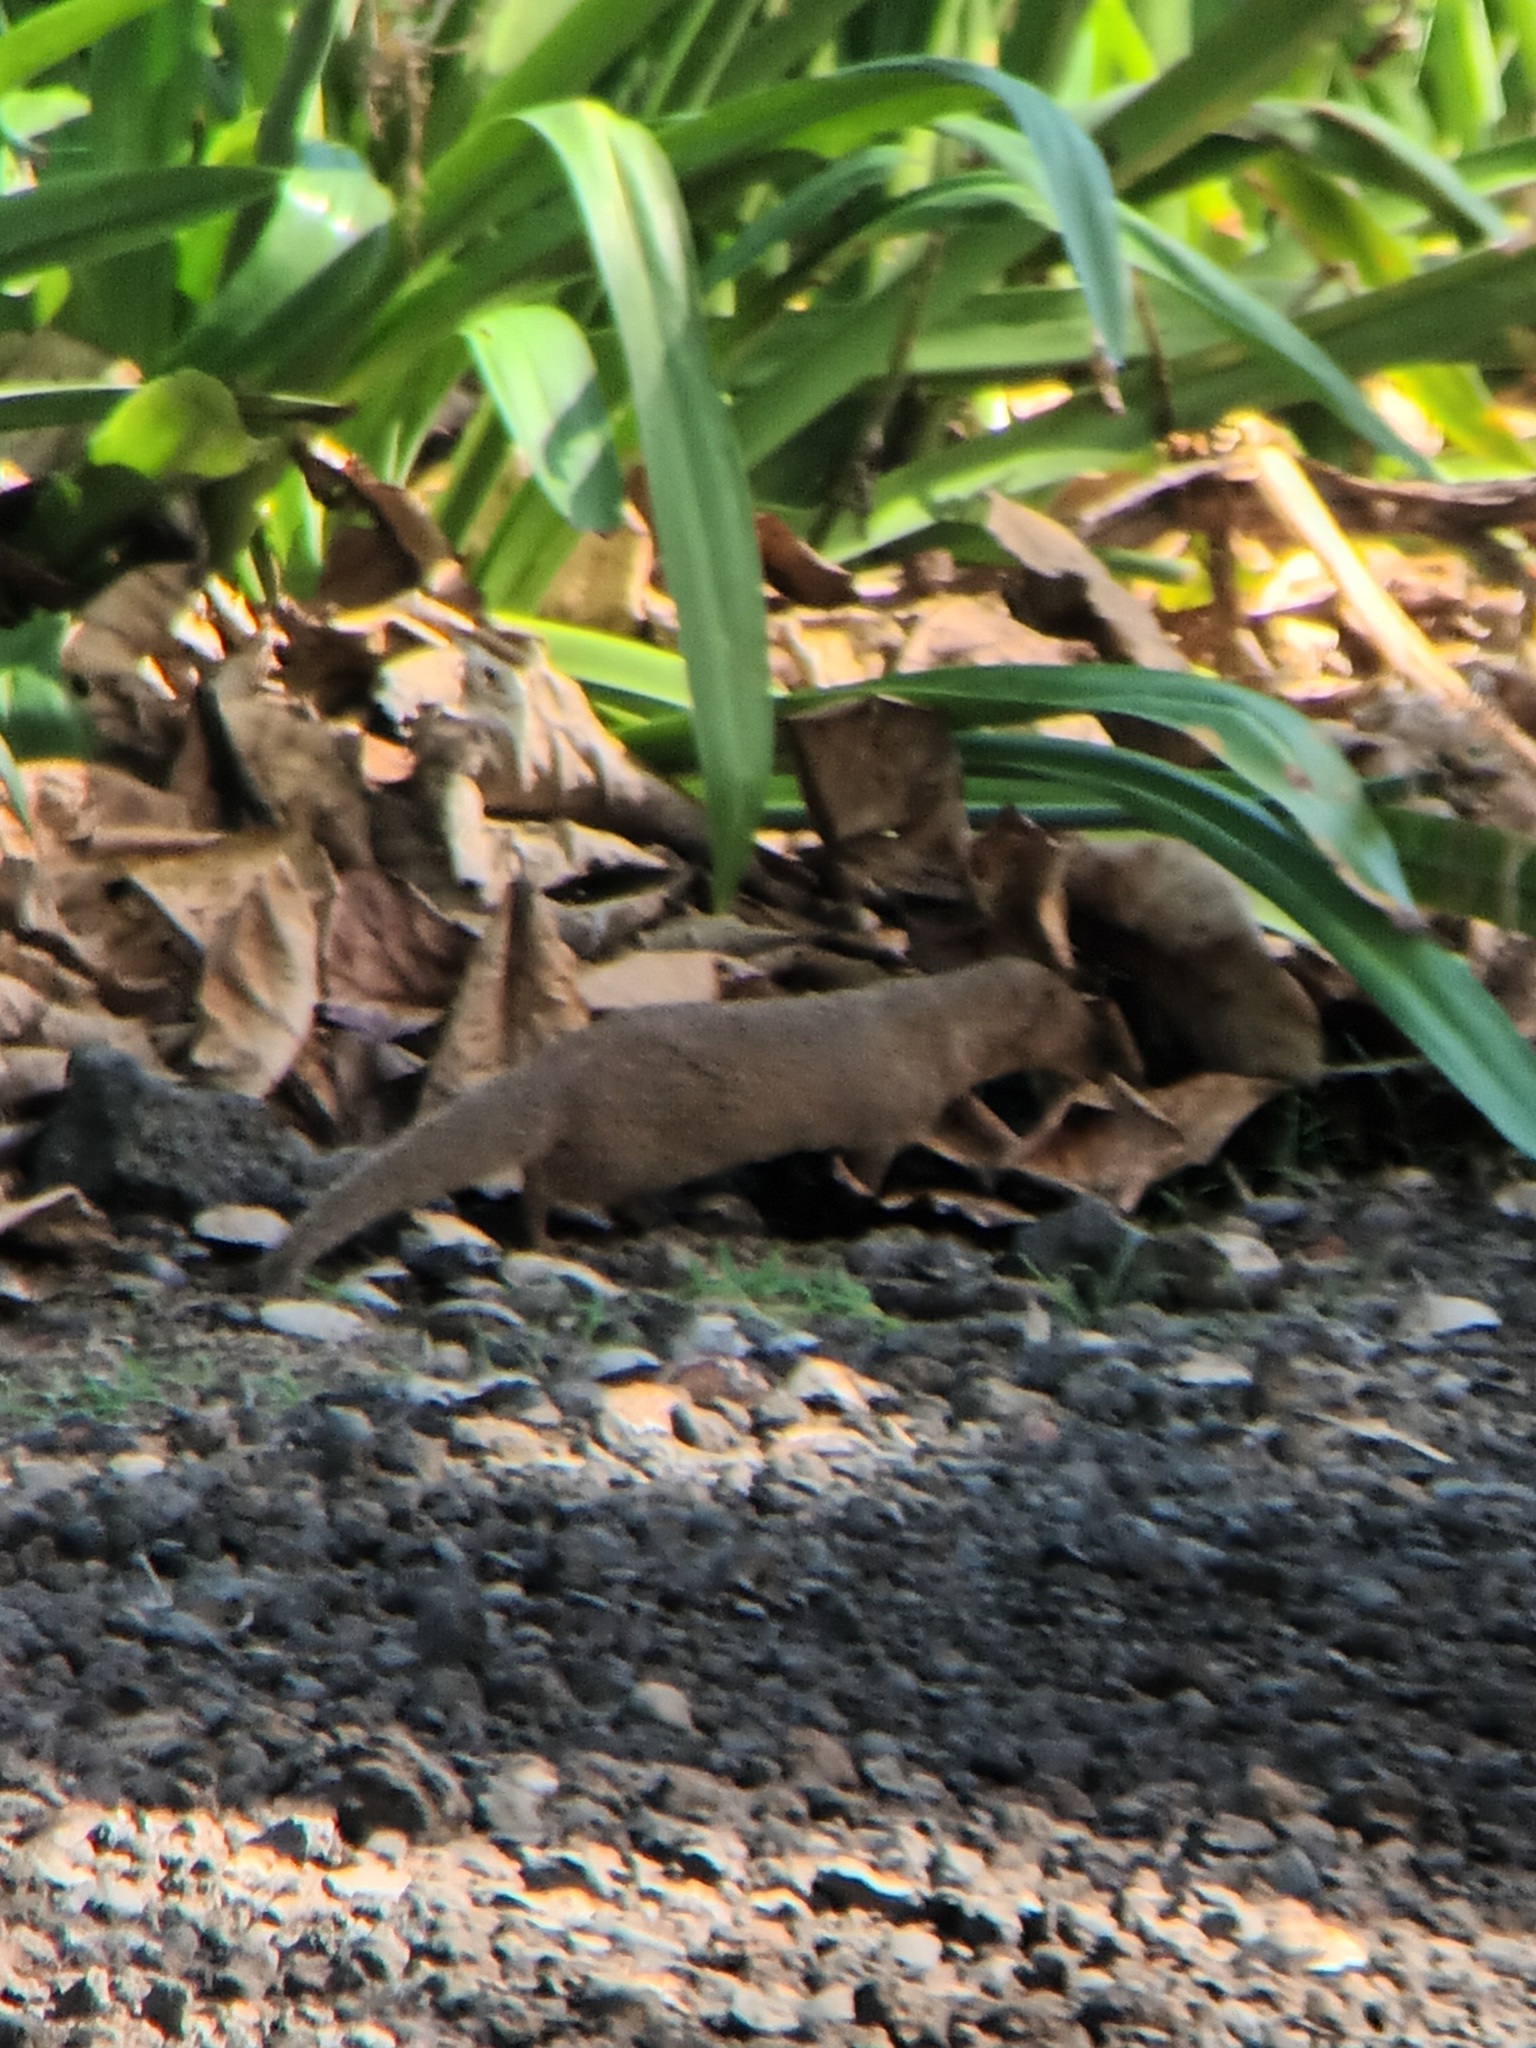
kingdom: Animalia
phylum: Chordata
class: Mammalia
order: Carnivora
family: Herpestidae
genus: Herpestes
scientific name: Herpestes javanicus
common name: Small asian mongoose
